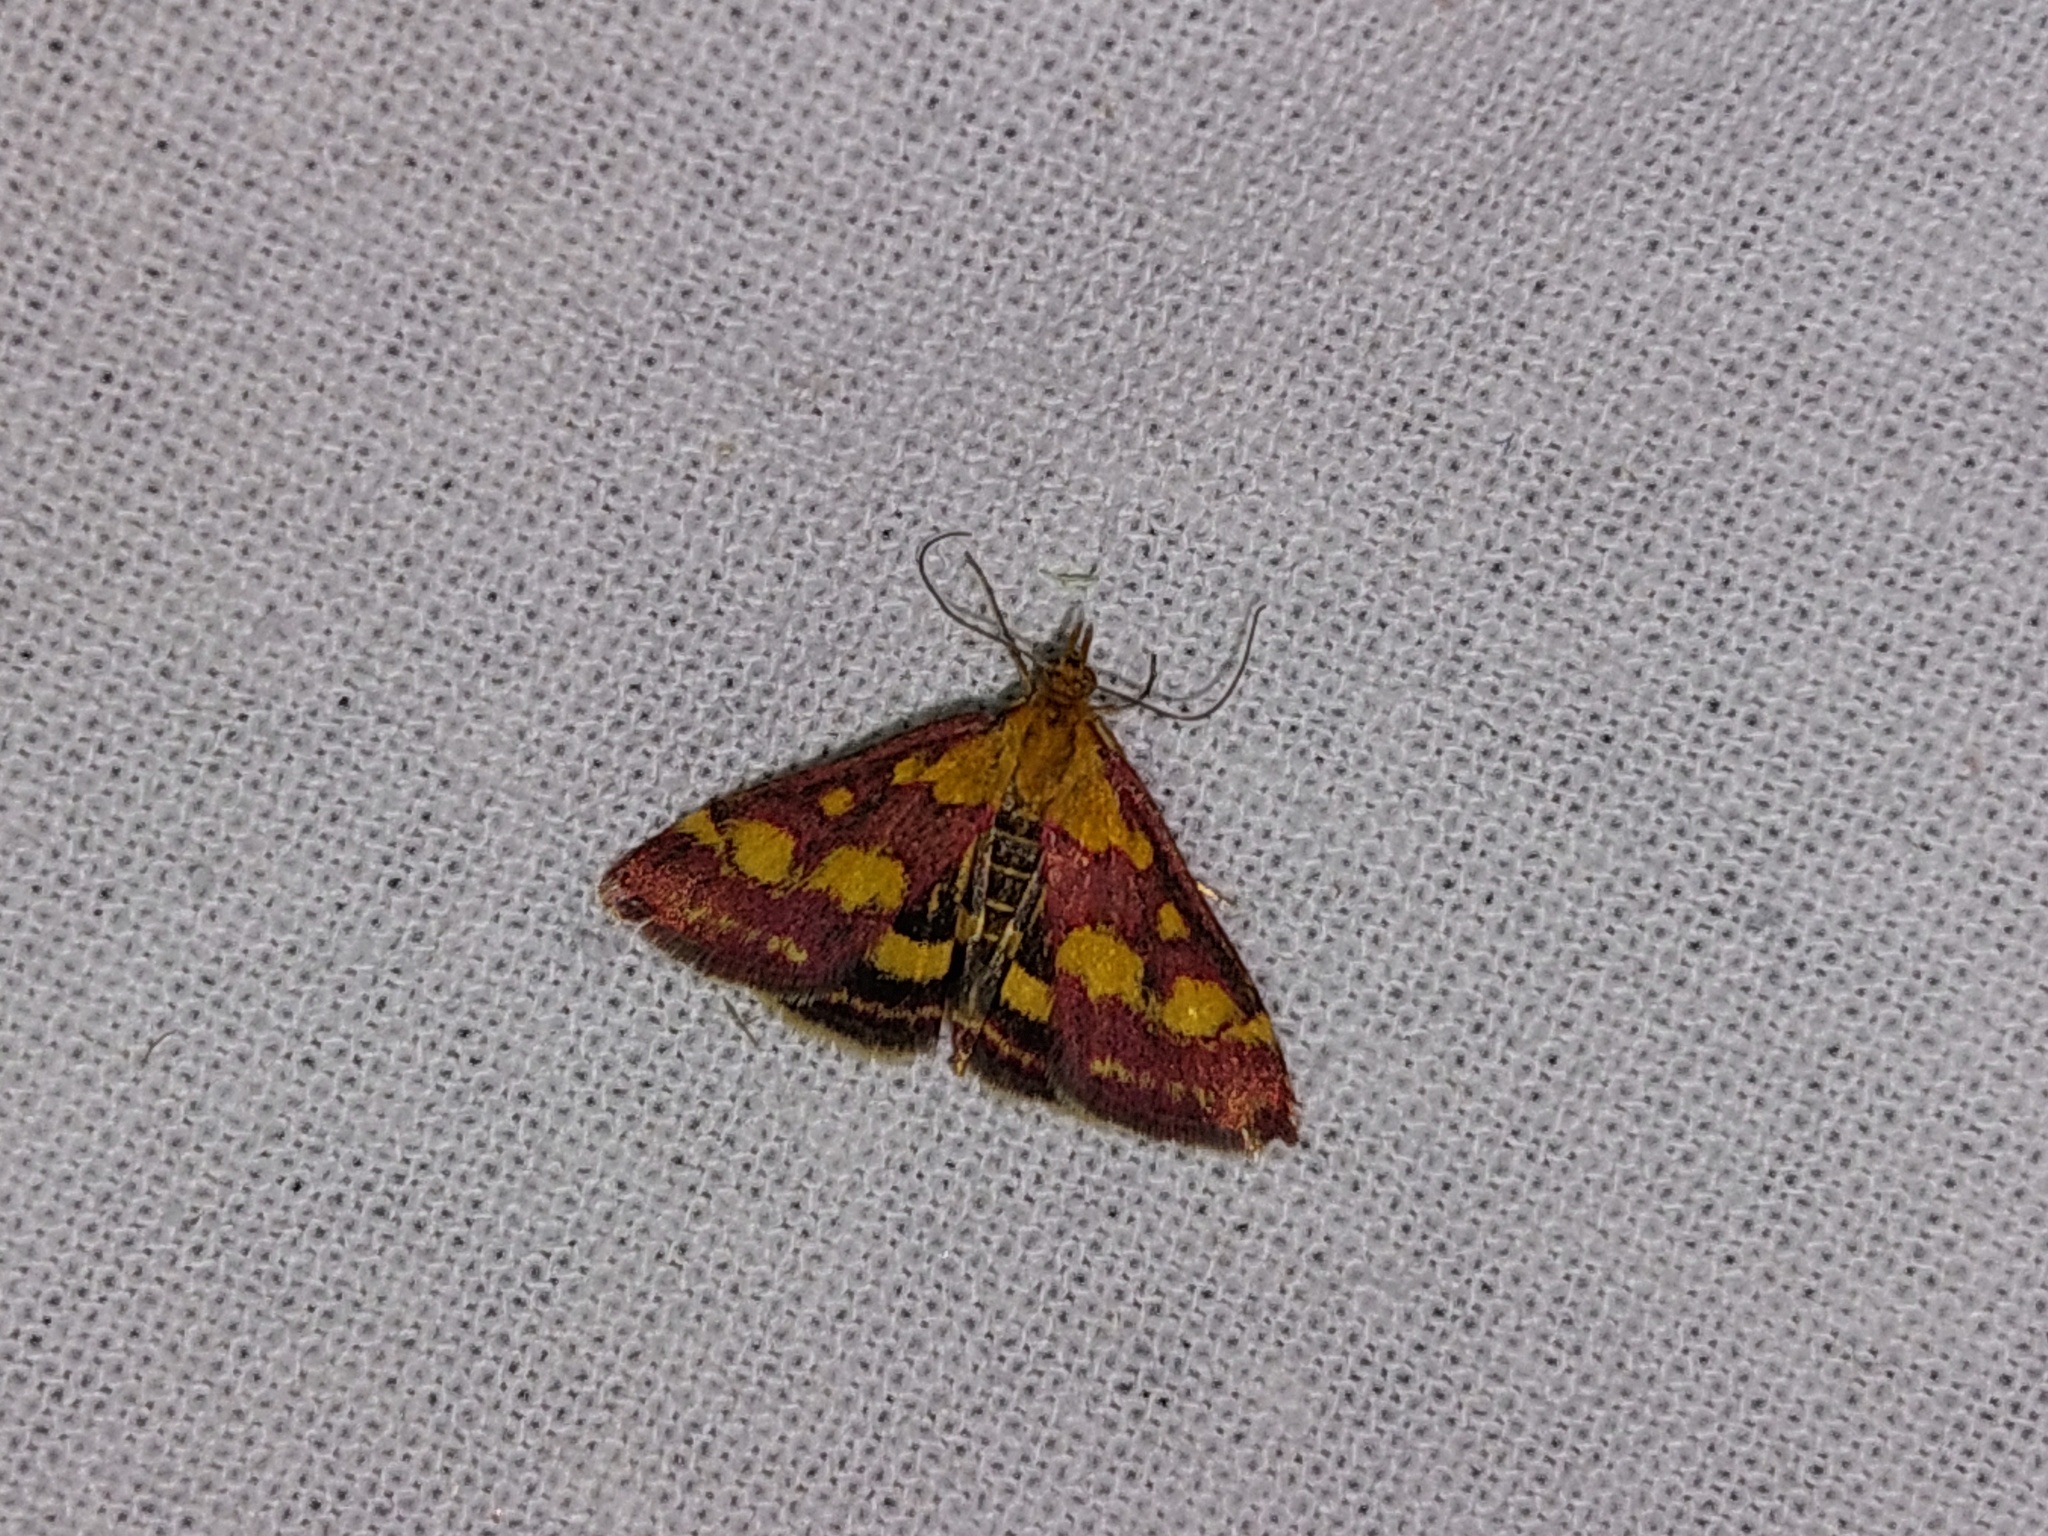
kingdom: Animalia
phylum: Arthropoda
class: Insecta
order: Lepidoptera
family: Crambidae
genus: Pyrausta
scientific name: Pyrausta purpuralis
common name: Common purple & gold
